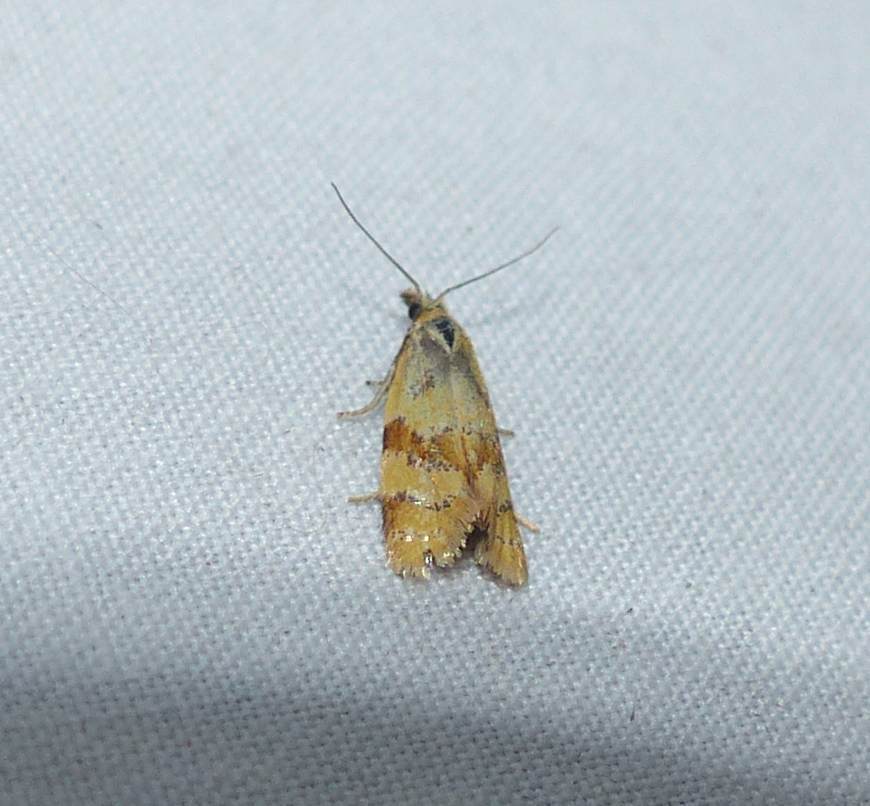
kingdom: Animalia
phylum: Arthropoda
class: Insecta
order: Lepidoptera
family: Tortricidae
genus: Phtheochroa
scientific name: Phtheochroa vitellinana
